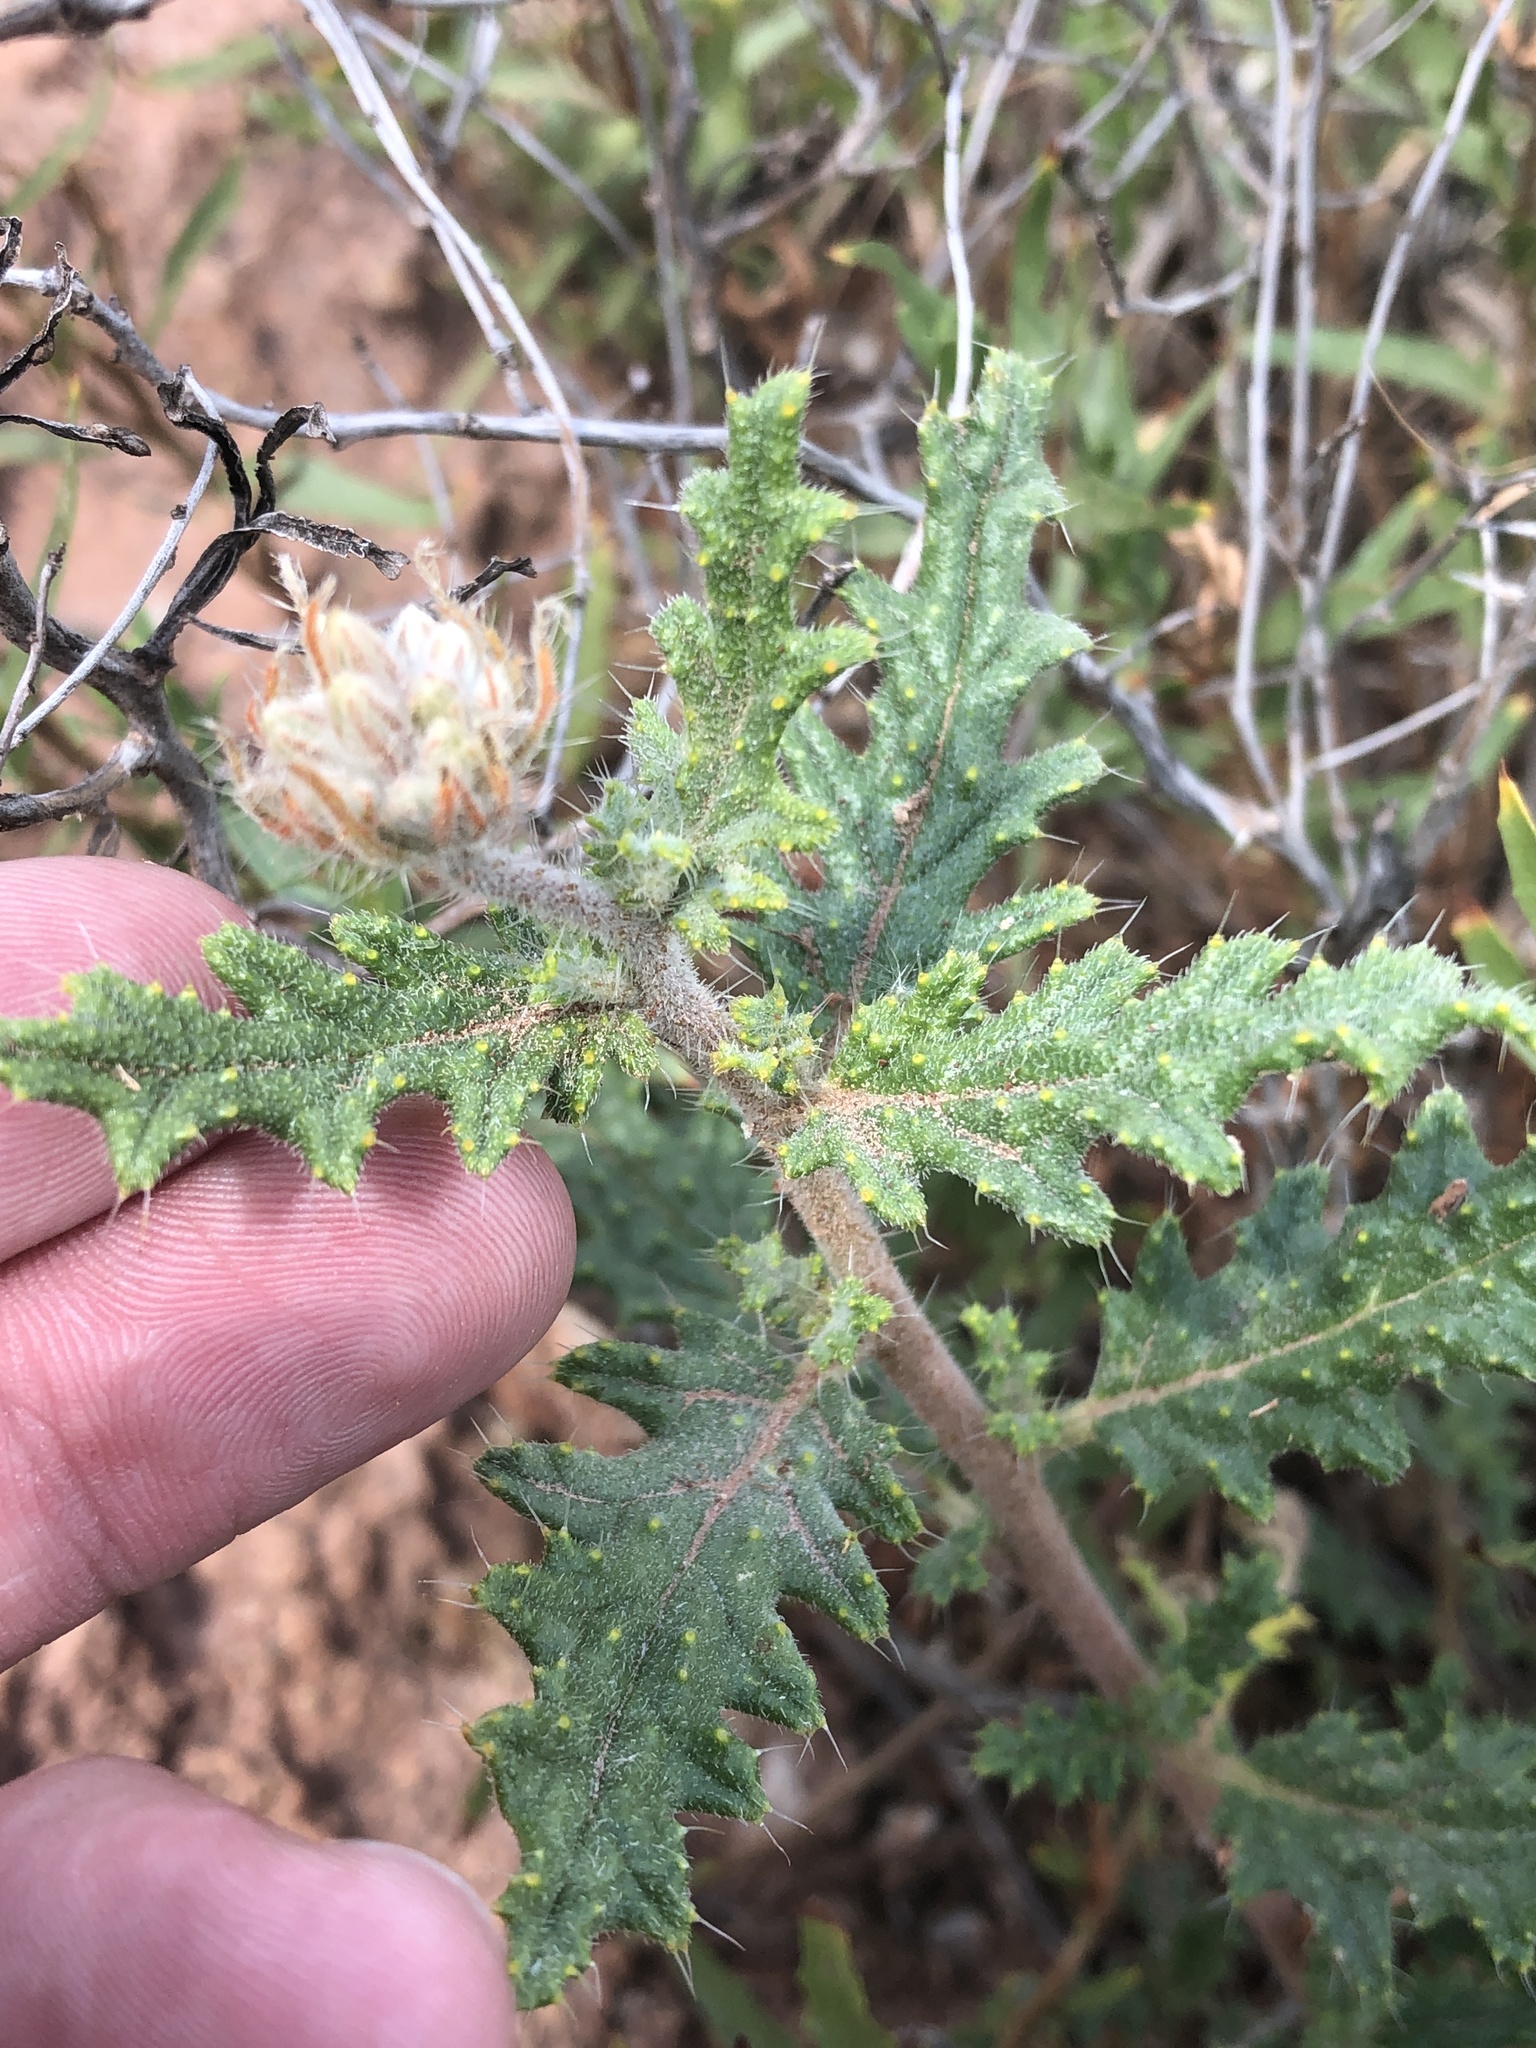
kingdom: Plantae
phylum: Tracheophyta
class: Magnoliopsida
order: Cornales
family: Loasaceae
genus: Cevallia
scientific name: Cevallia sinuata
